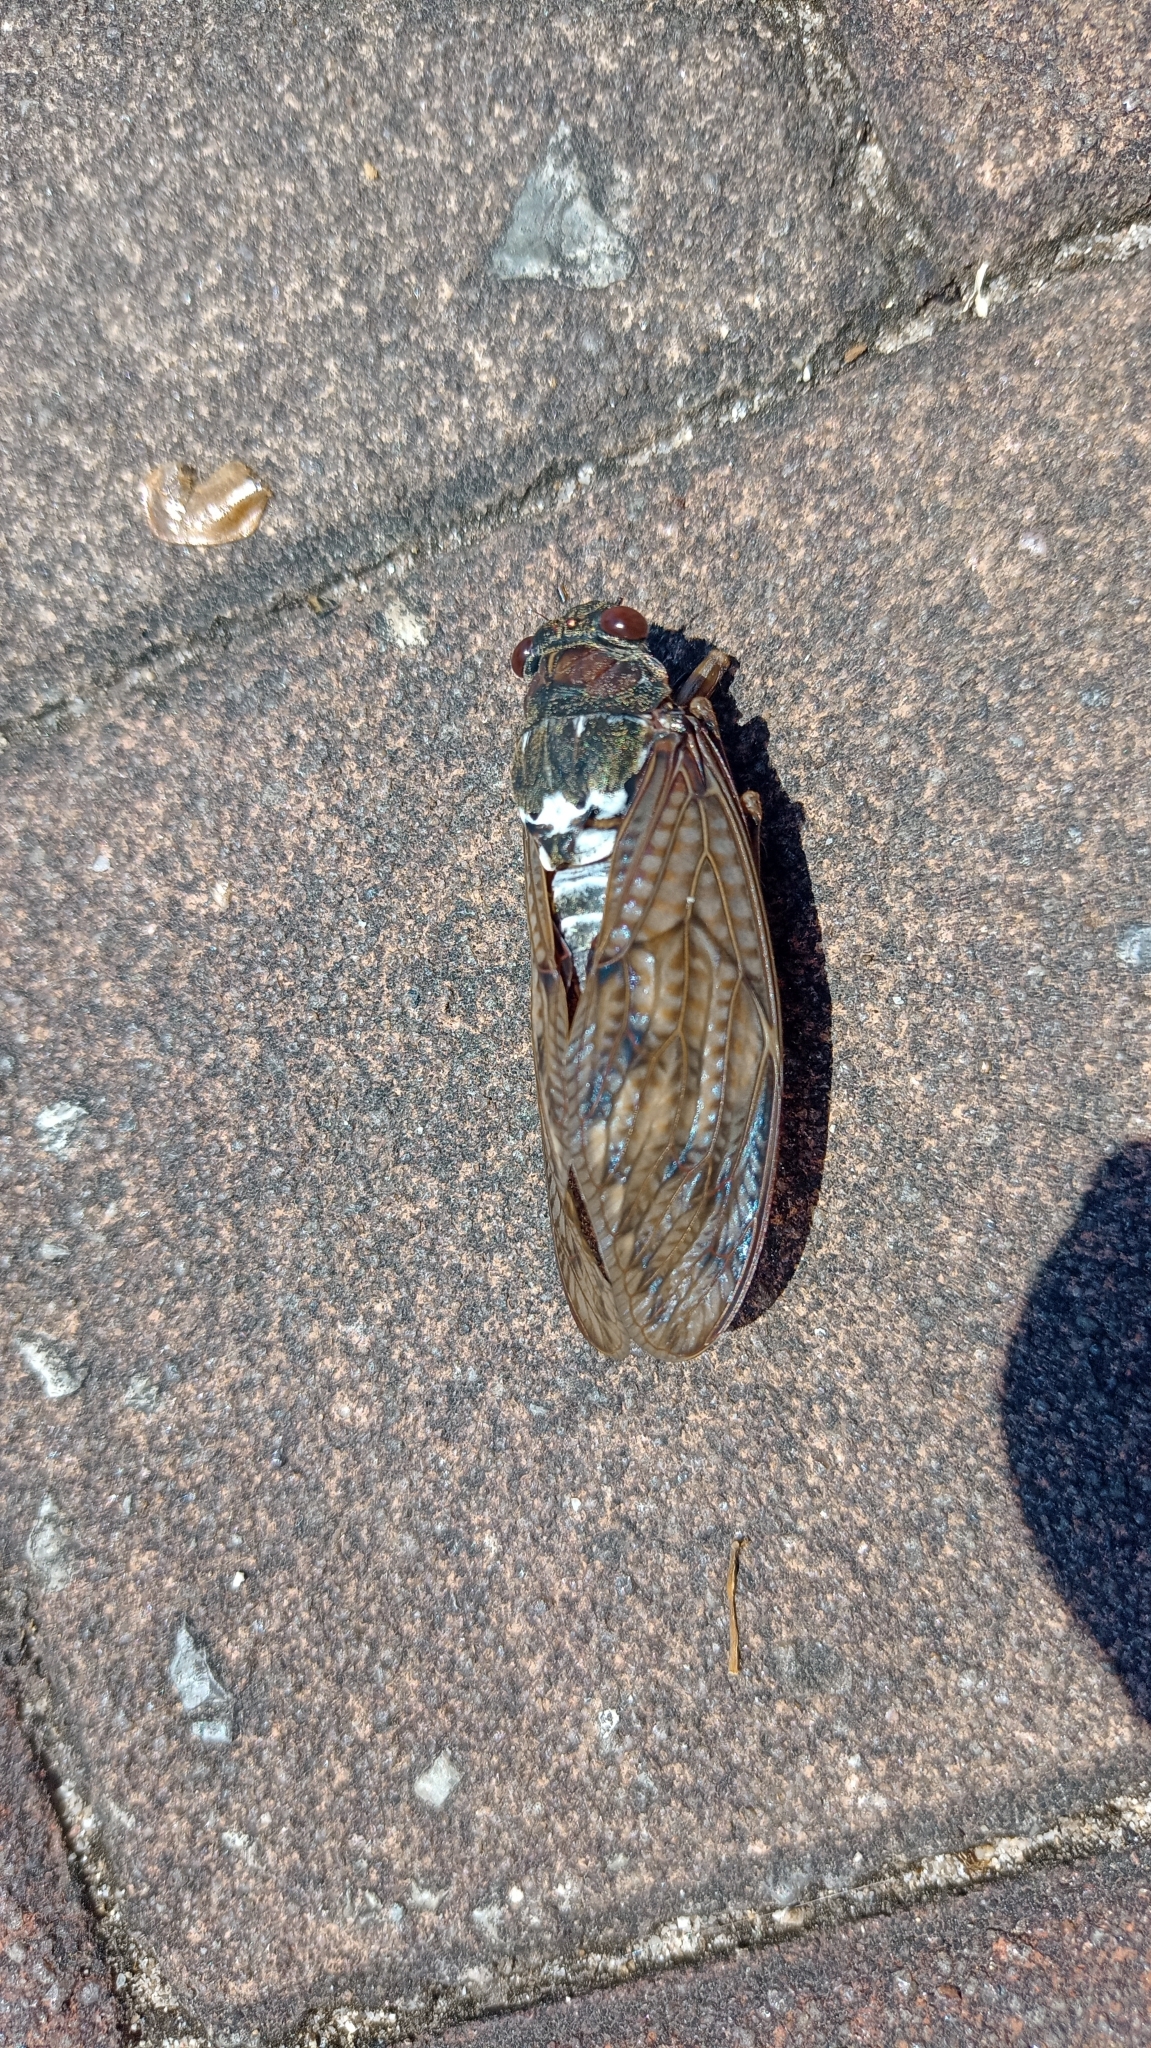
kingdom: Animalia
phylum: Arthropoda
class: Insecta
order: Hemiptera
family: Cicadidae
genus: Graptopsaltria
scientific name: Graptopsaltria nigrofuscata
